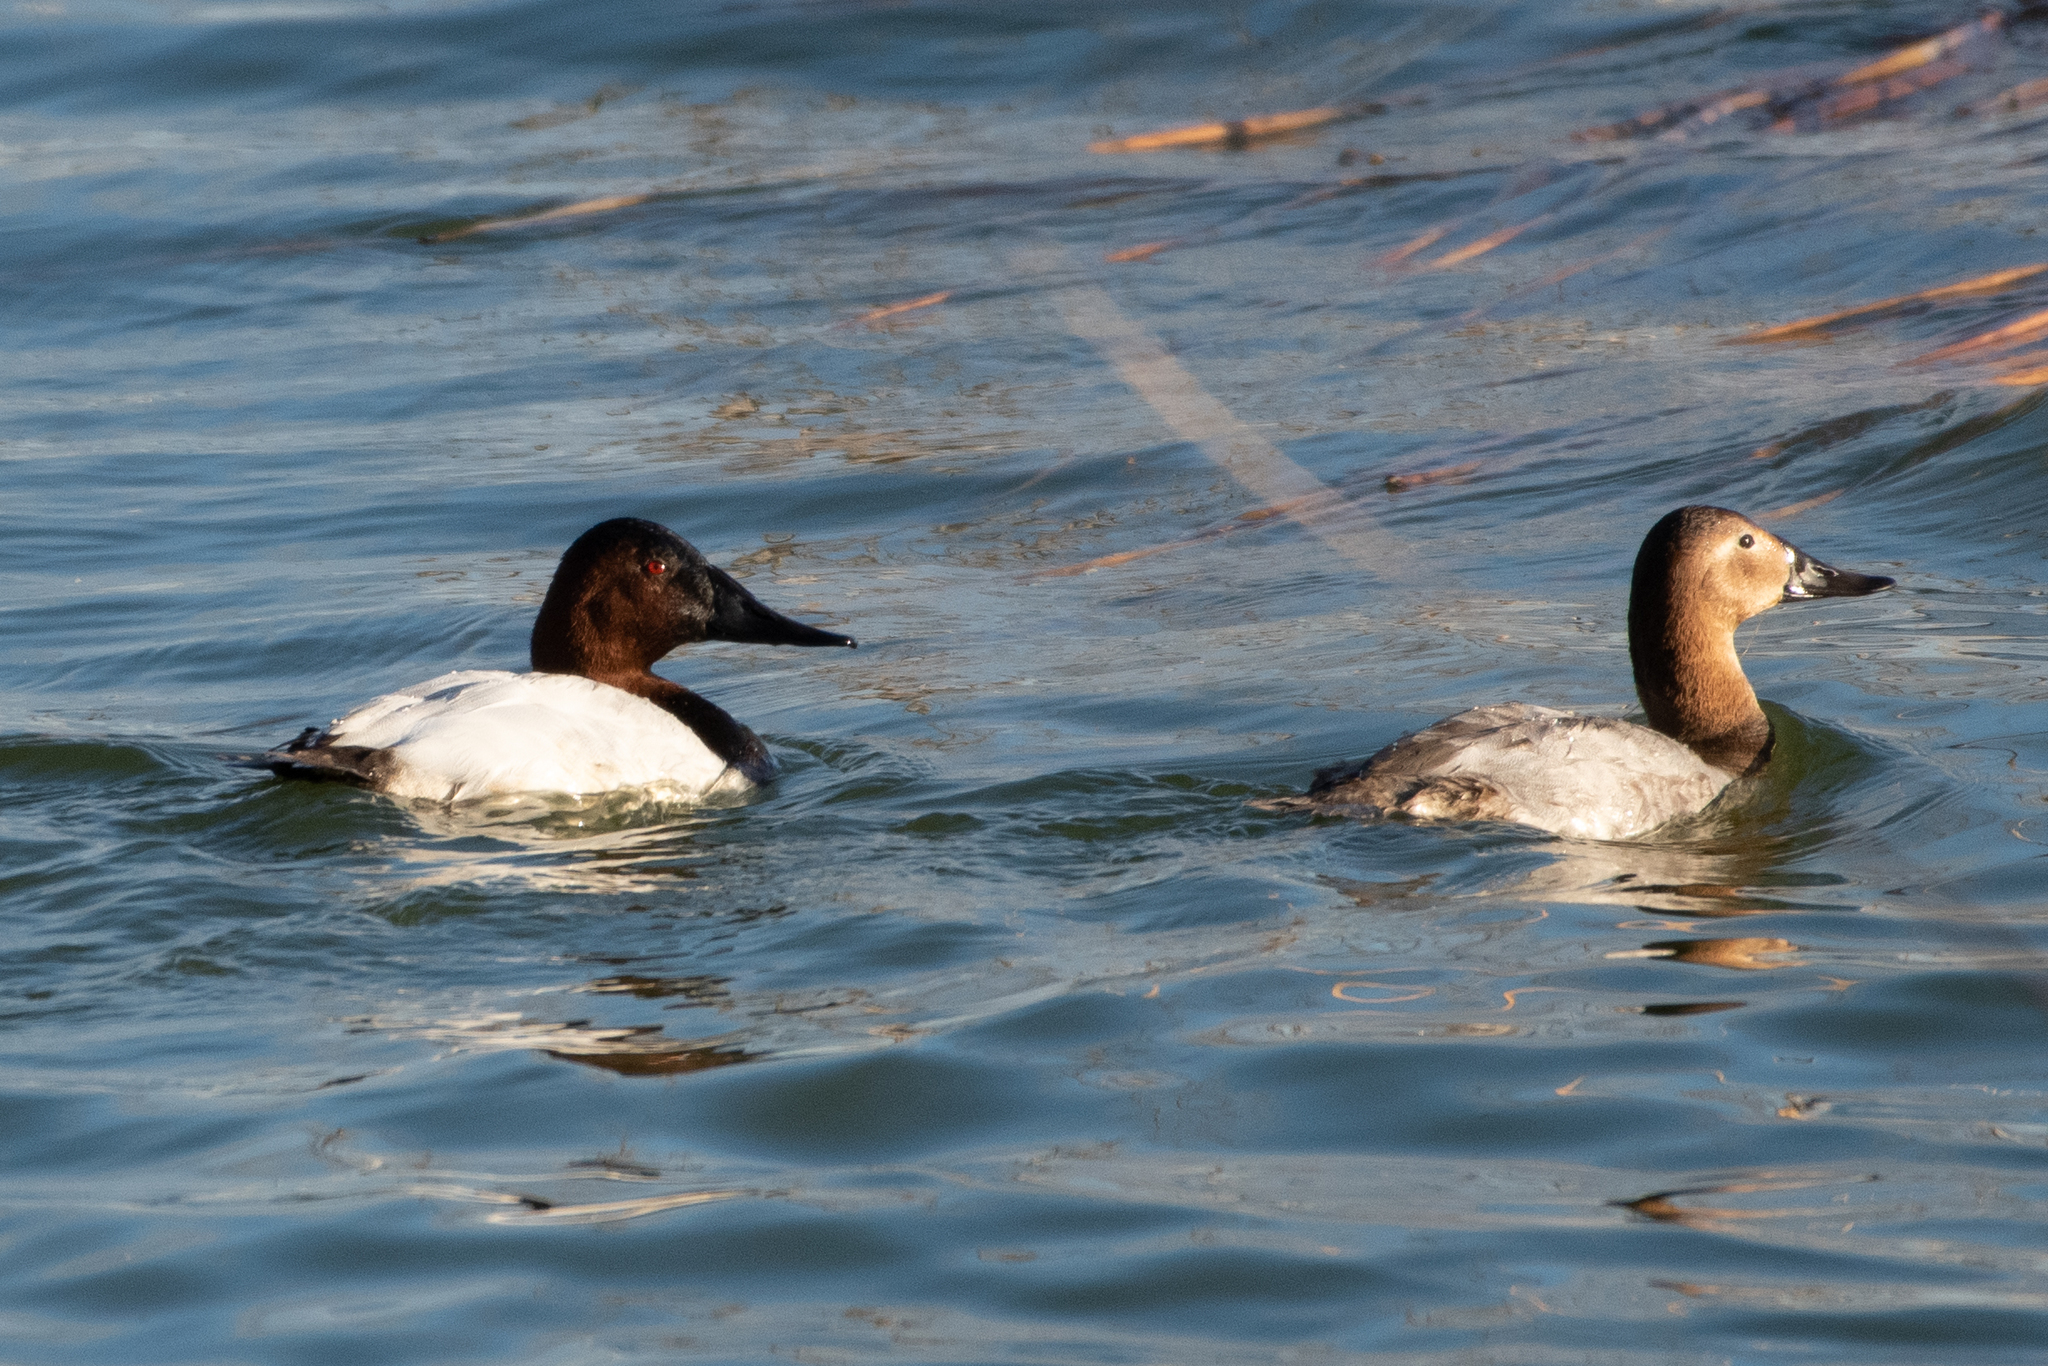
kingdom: Animalia
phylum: Chordata
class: Aves
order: Anseriformes
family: Anatidae
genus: Aythya
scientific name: Aythya valisineria
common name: Canvasback
